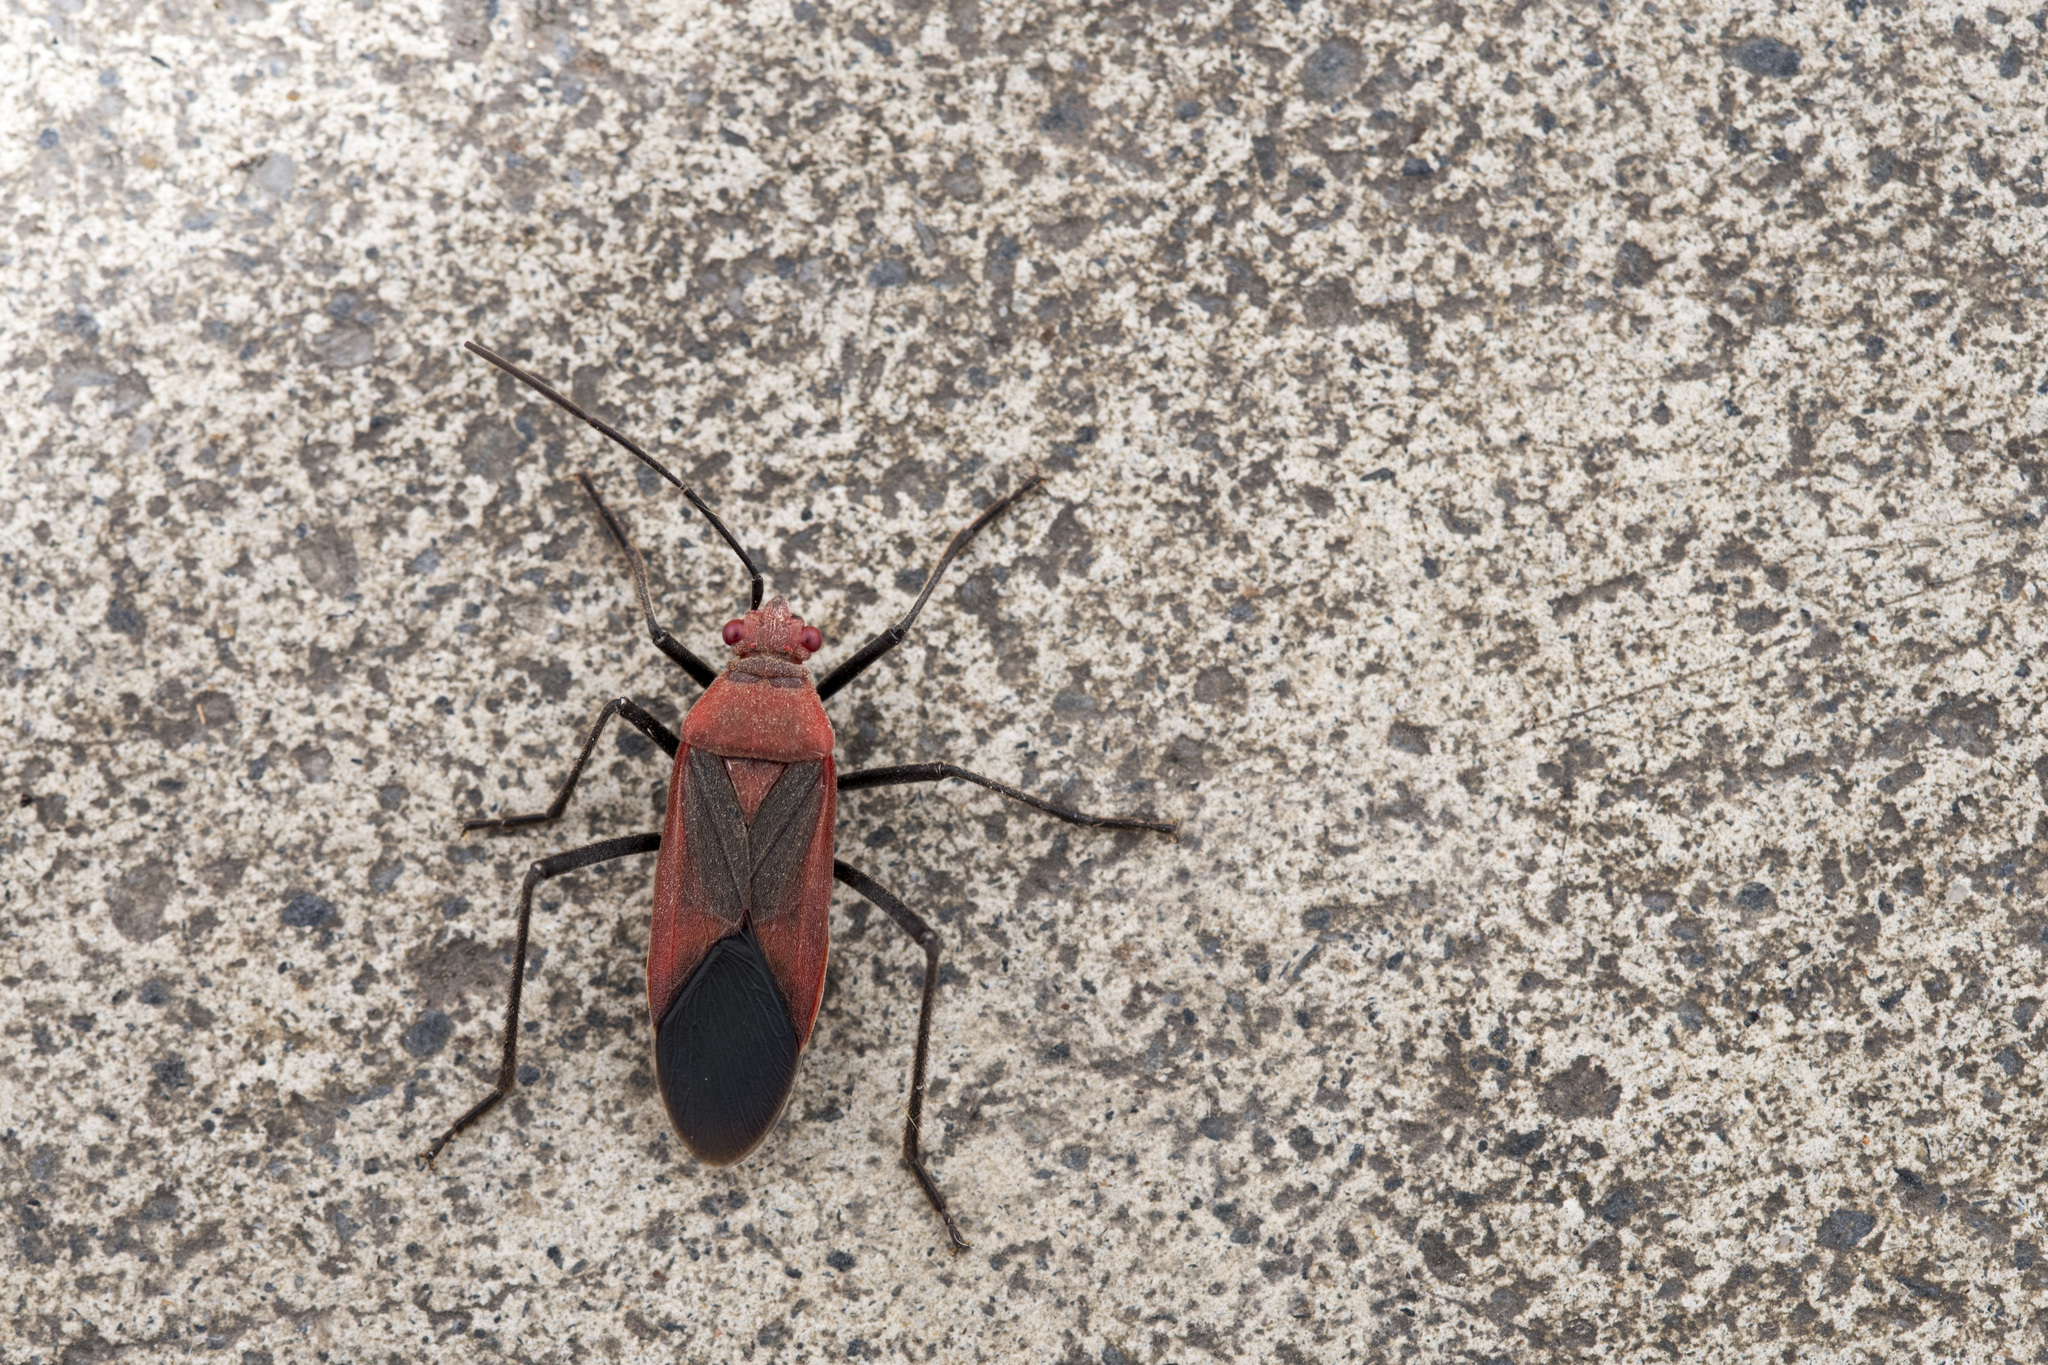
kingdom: Animalia
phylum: Arthropoda
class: Insecta
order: Hemiptera
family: Rhopalidae
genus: Leptocoris
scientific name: Leptocoris vicinus
